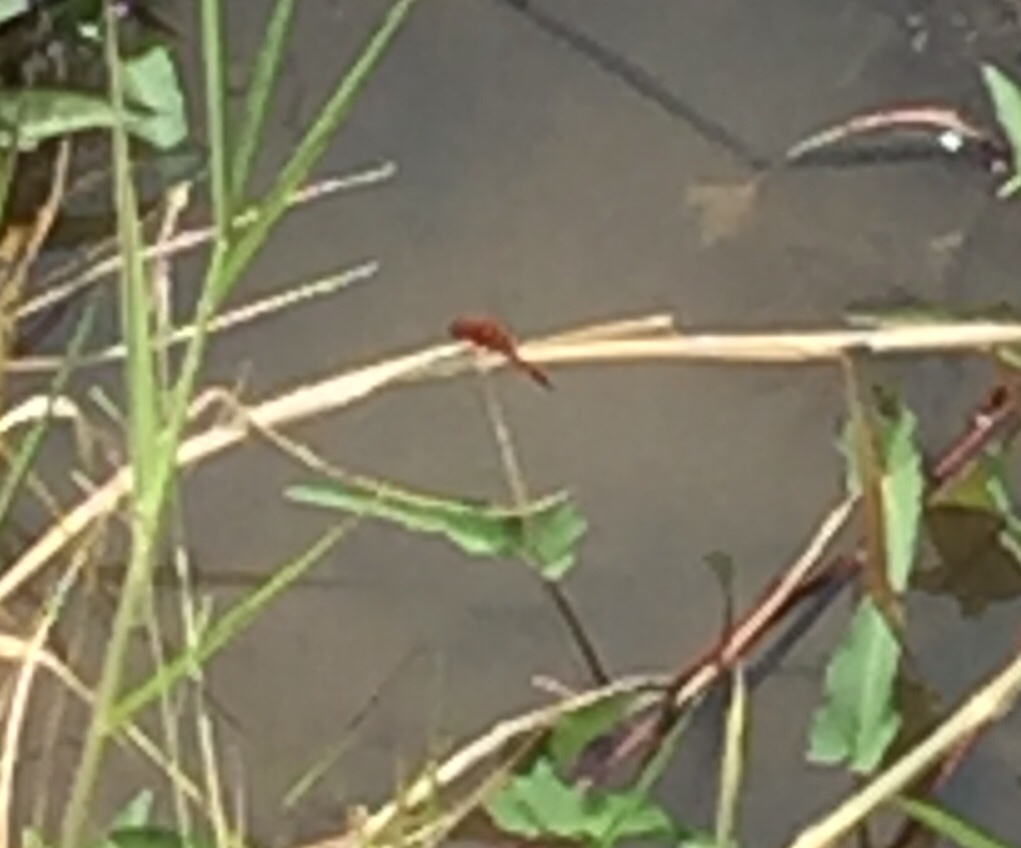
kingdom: Animalia
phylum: Arthropoda
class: Insecta
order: Odonata
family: Libellulidae
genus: Crocothemis
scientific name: Crocothemis servilia
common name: Scarlet skimmer
